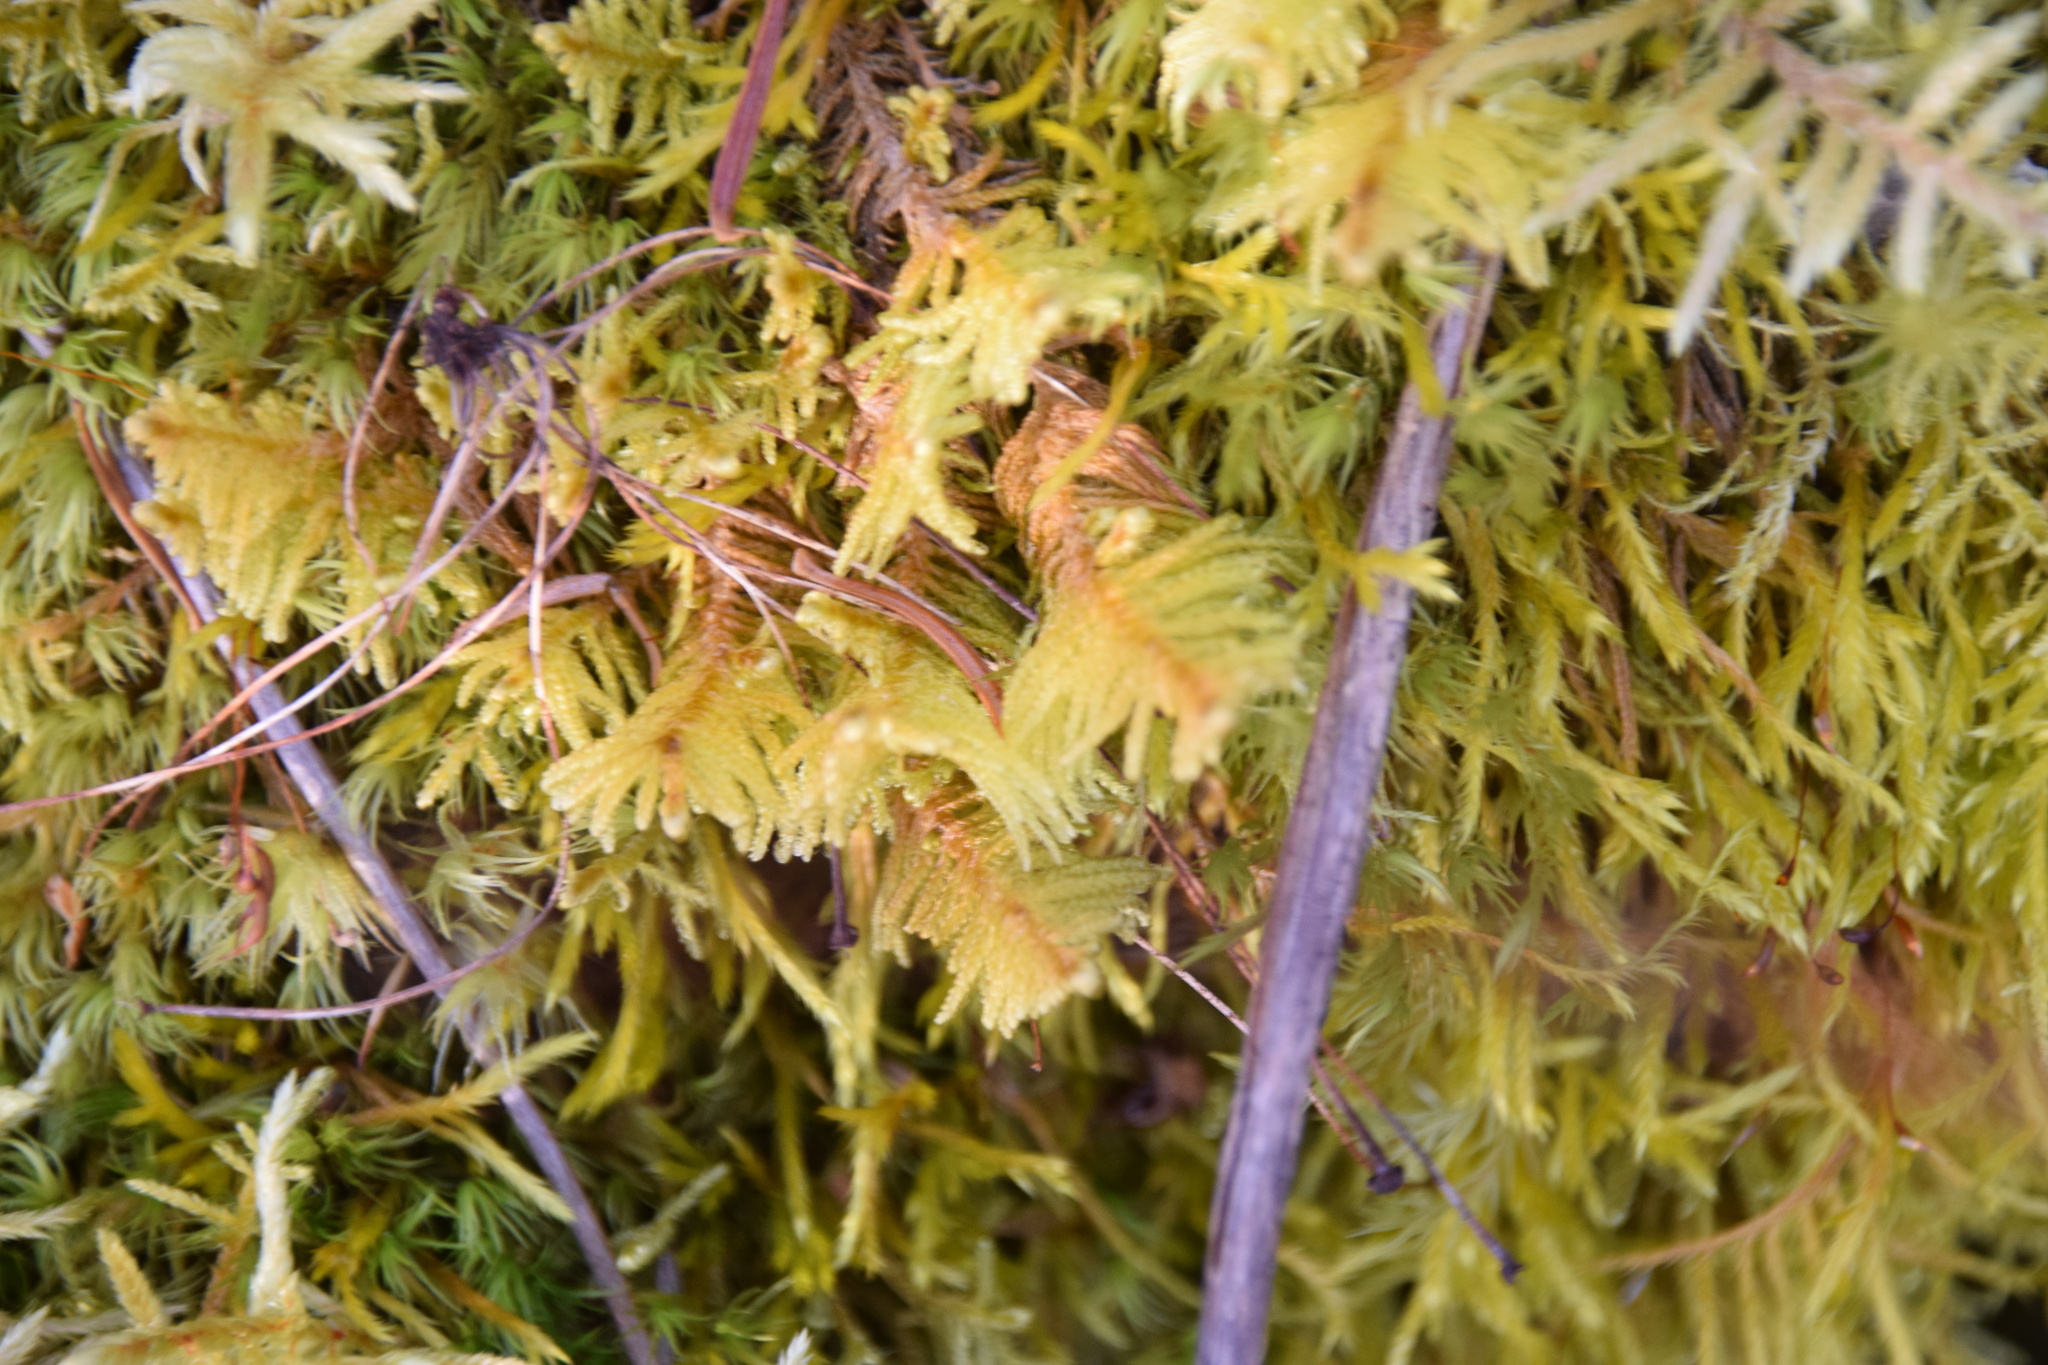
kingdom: Plantae
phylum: Bryophyta
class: Bryopsida
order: Hypnales
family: Pylaisiaceae
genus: Ptilium
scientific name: Ptilium crista-castrensis
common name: Knight's plume moss
